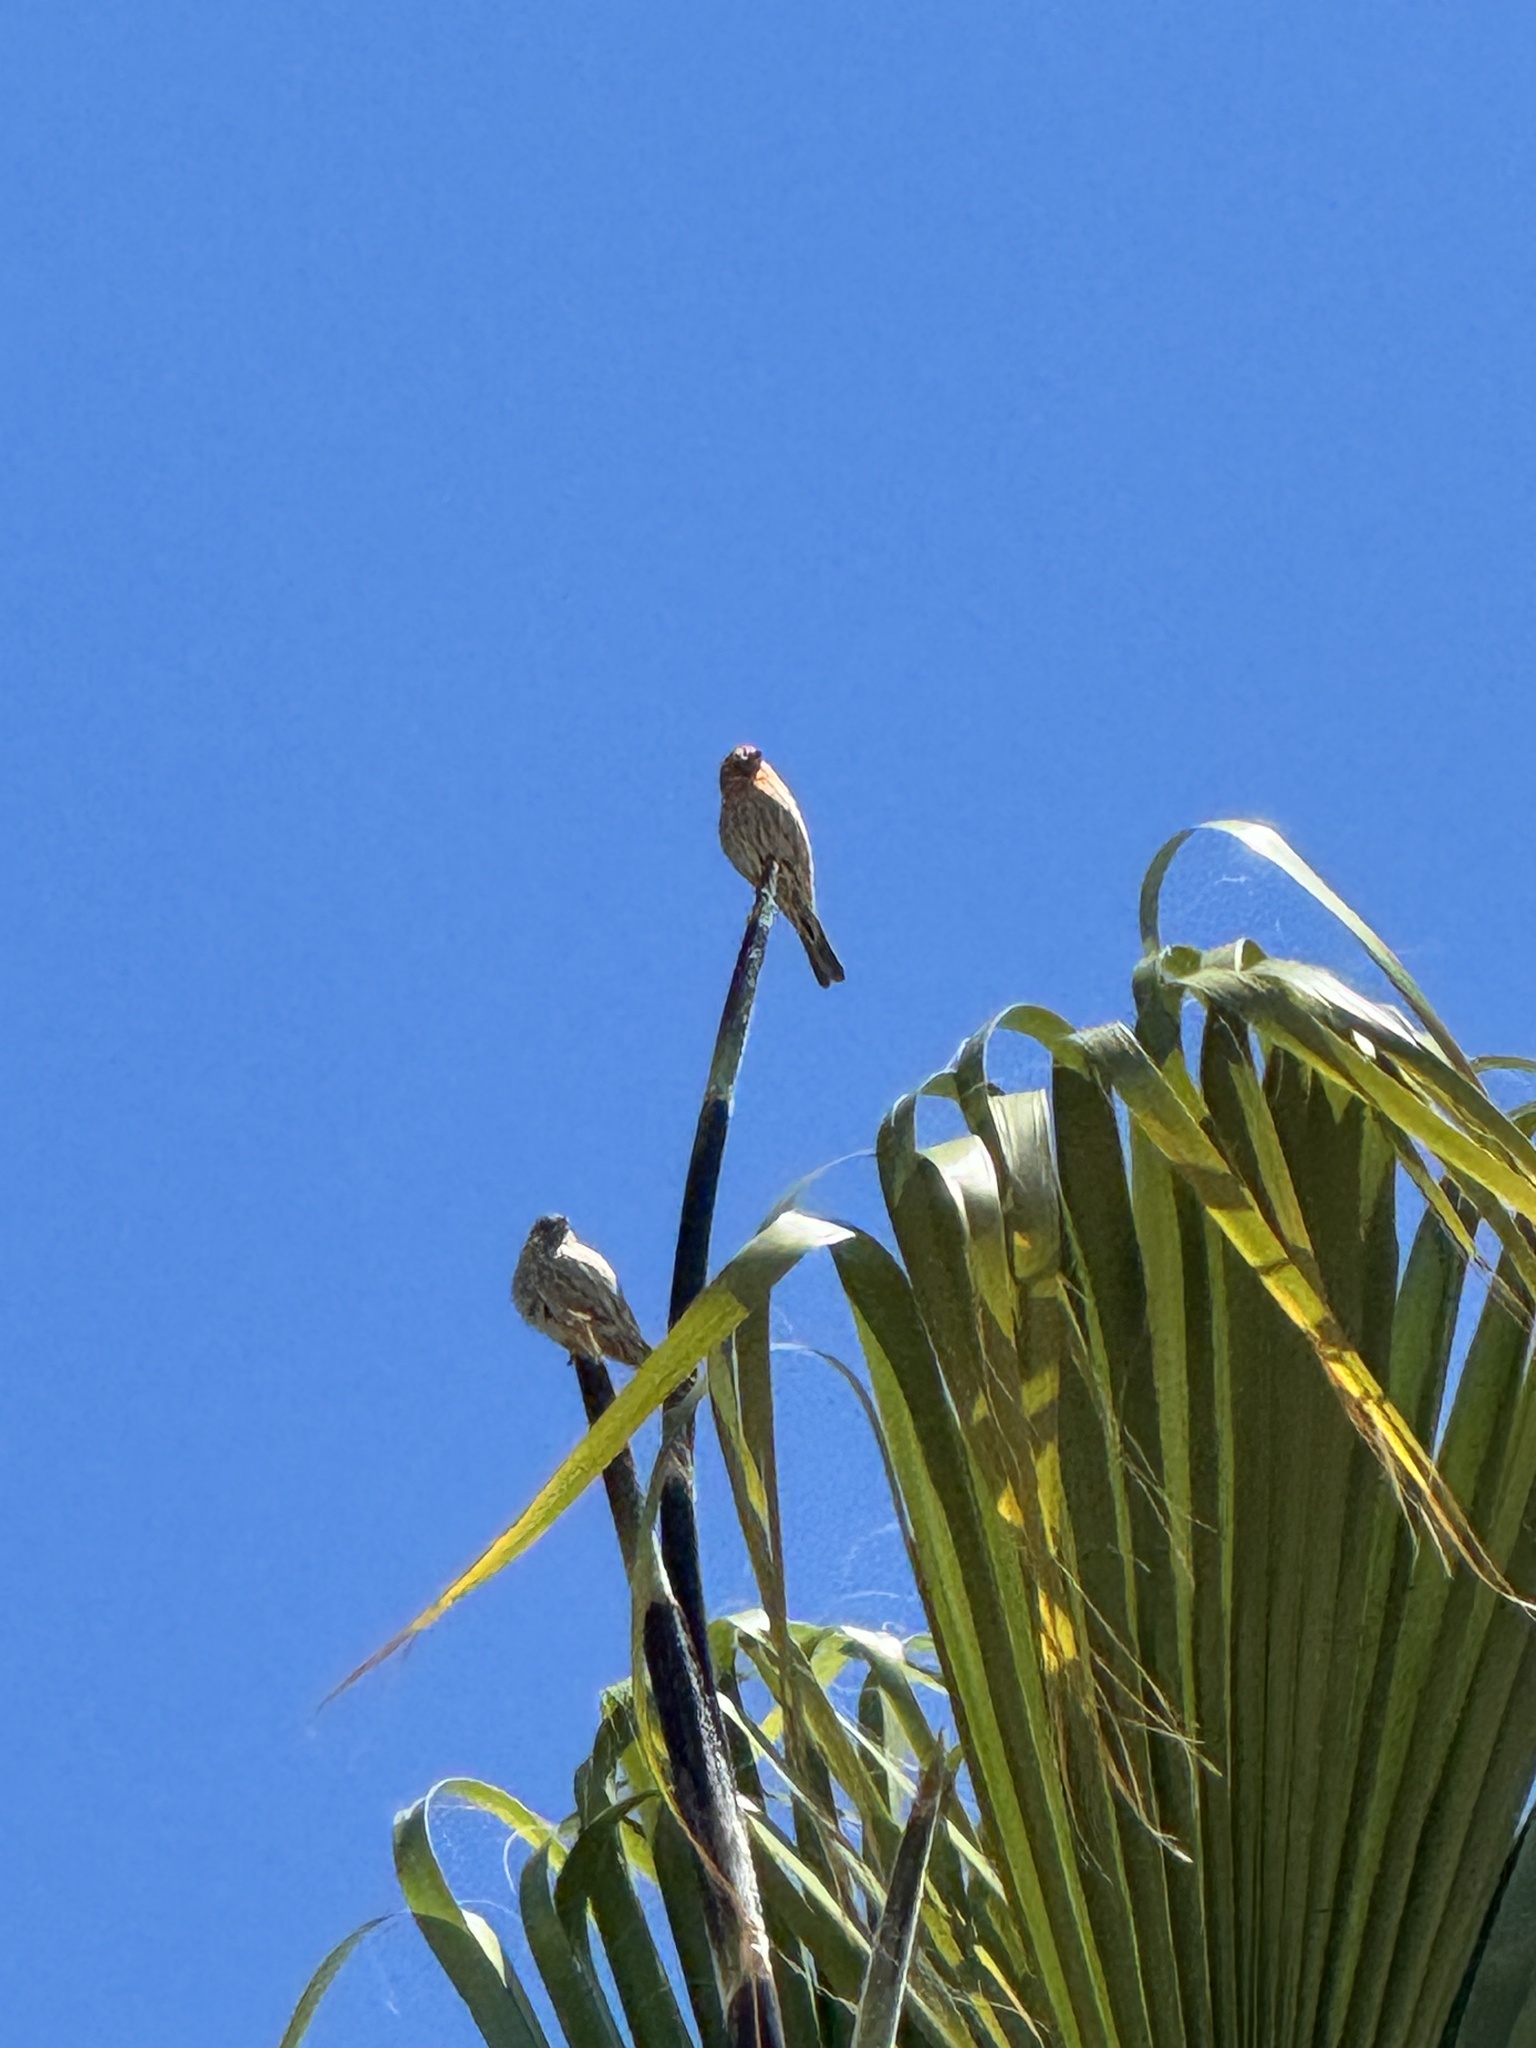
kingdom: Animalia
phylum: Chordata
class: Aves
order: Passeriformes
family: Fringillidae
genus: Haemorhous
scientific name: Haemorhous mexicanus
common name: House finch
